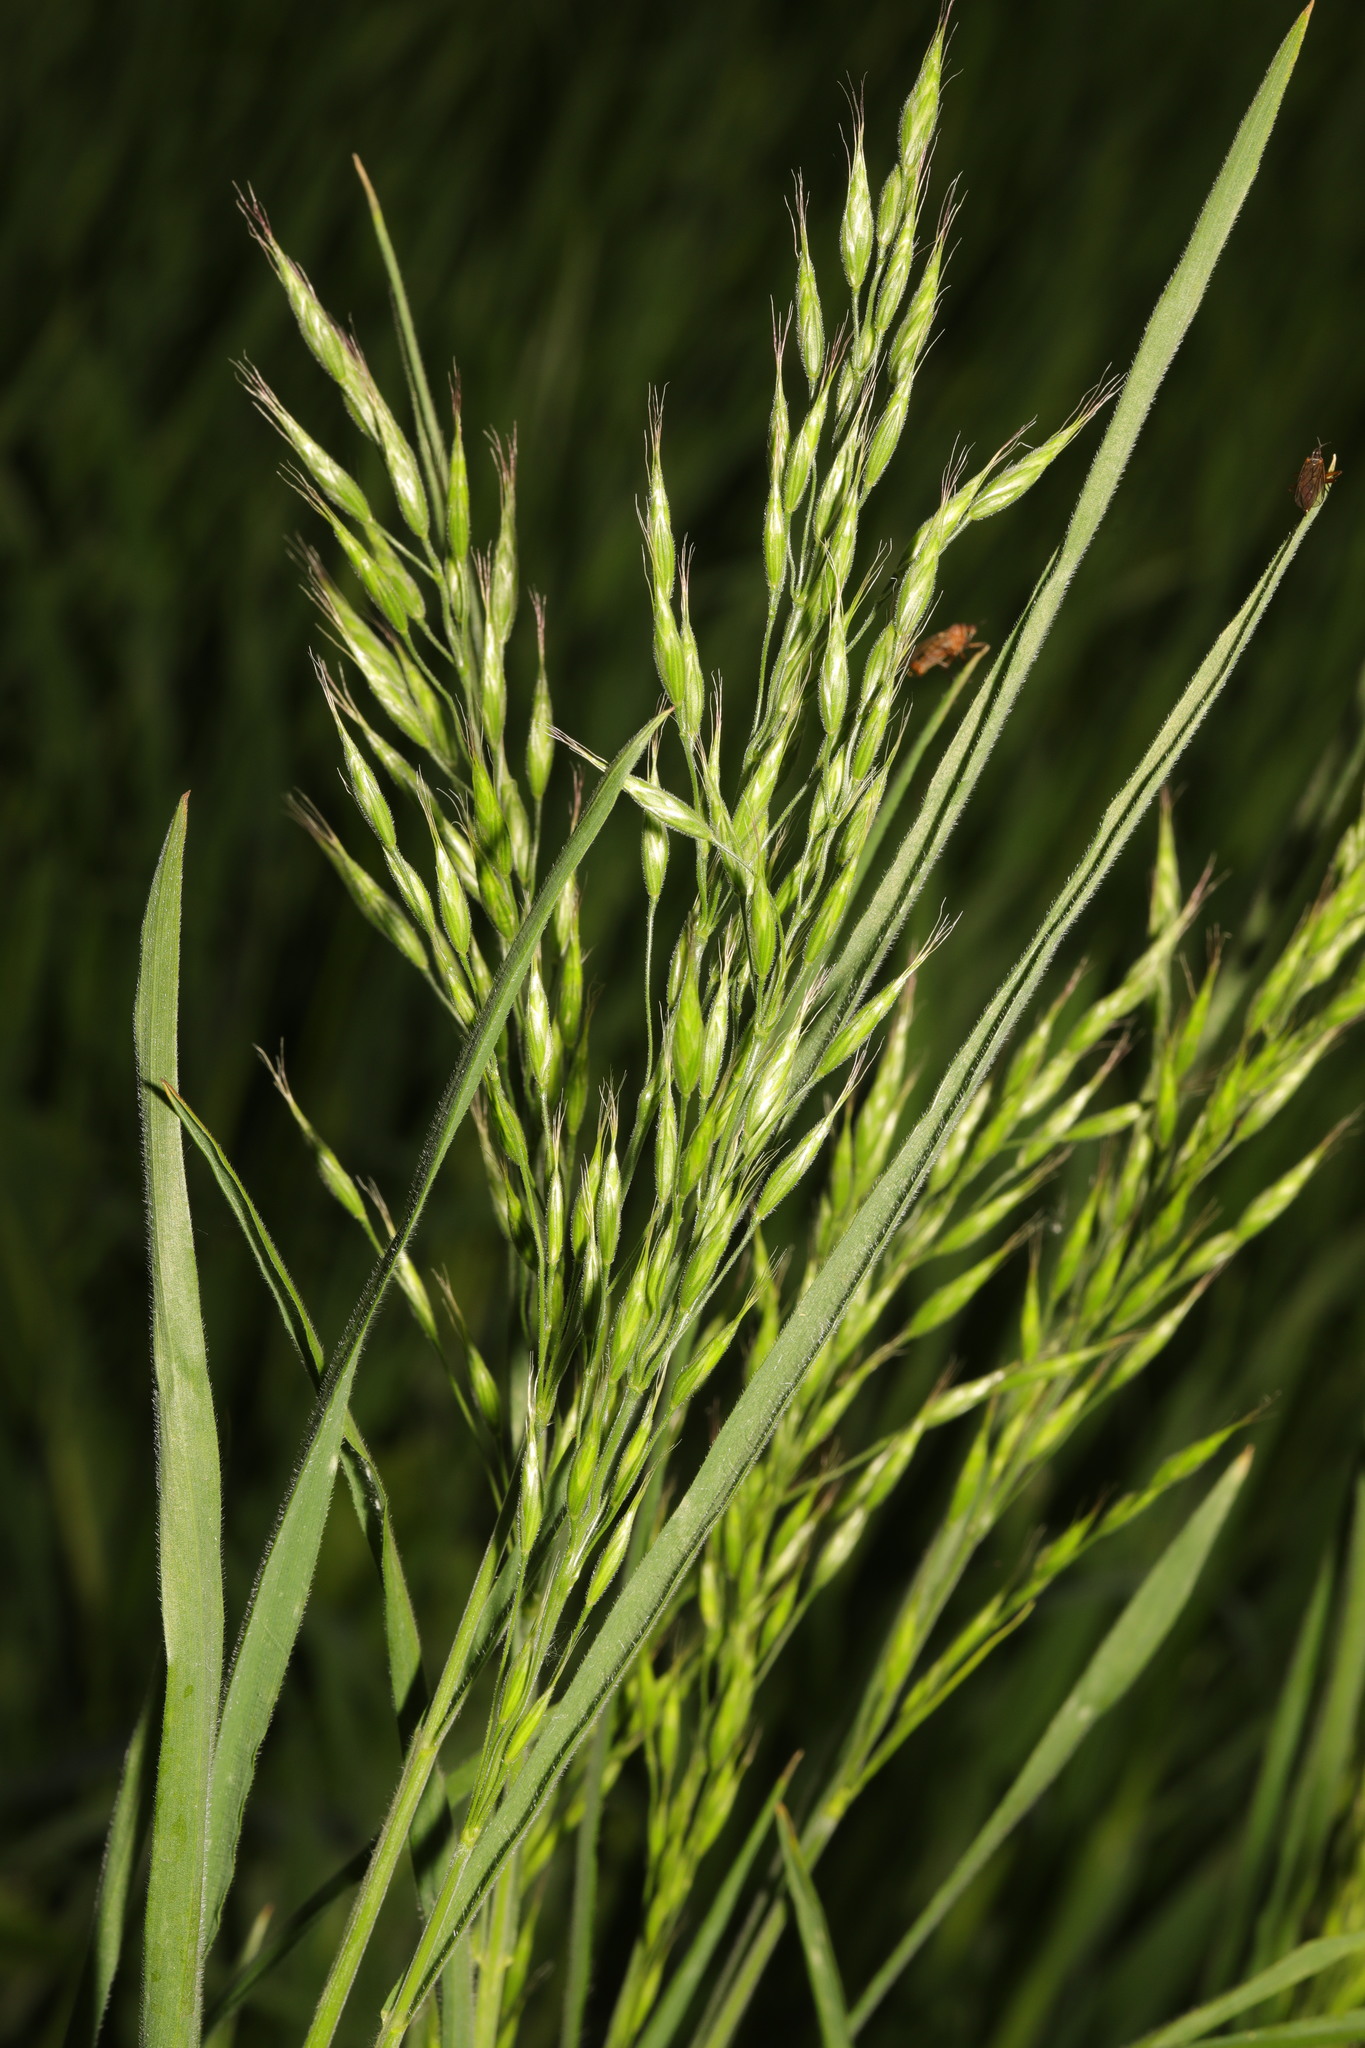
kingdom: Plantae
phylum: Tracheophyta
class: Liliopsida
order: Poales
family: Poaceae
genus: Bromus
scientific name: Bromus hordeaceus
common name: Soft brome
